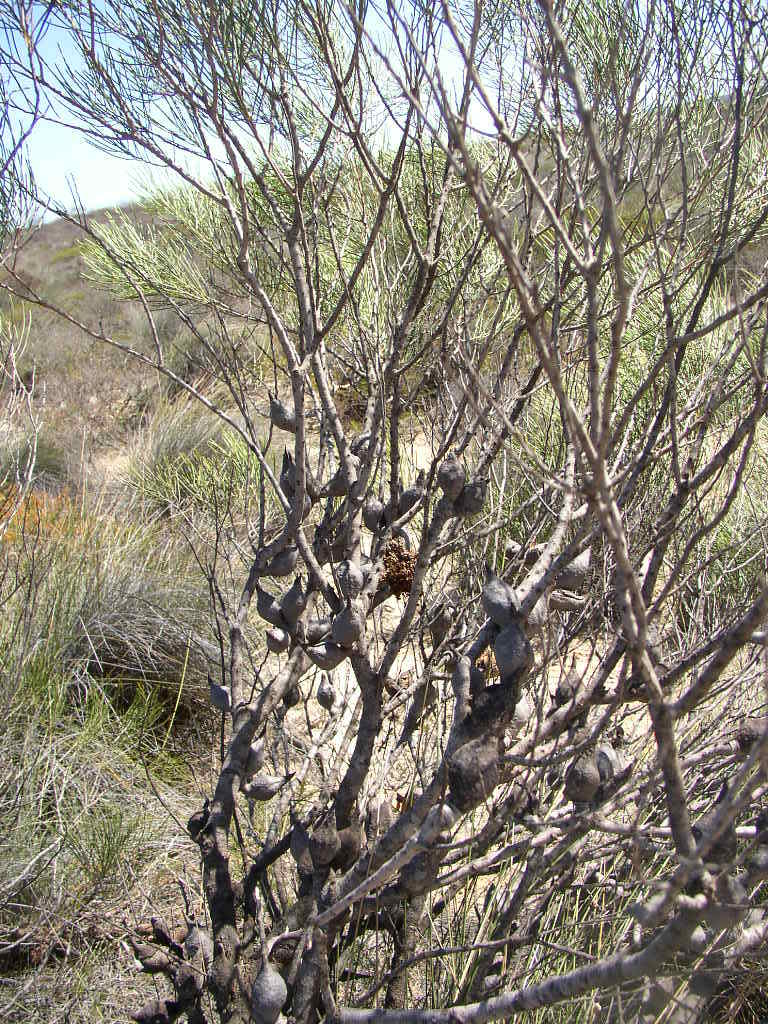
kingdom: Plantae
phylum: Tracheophyta
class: Magnoliopsida
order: Myrtales
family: Myrtaceae
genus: Melaleuca
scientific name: Melaleuca blepharosperma
